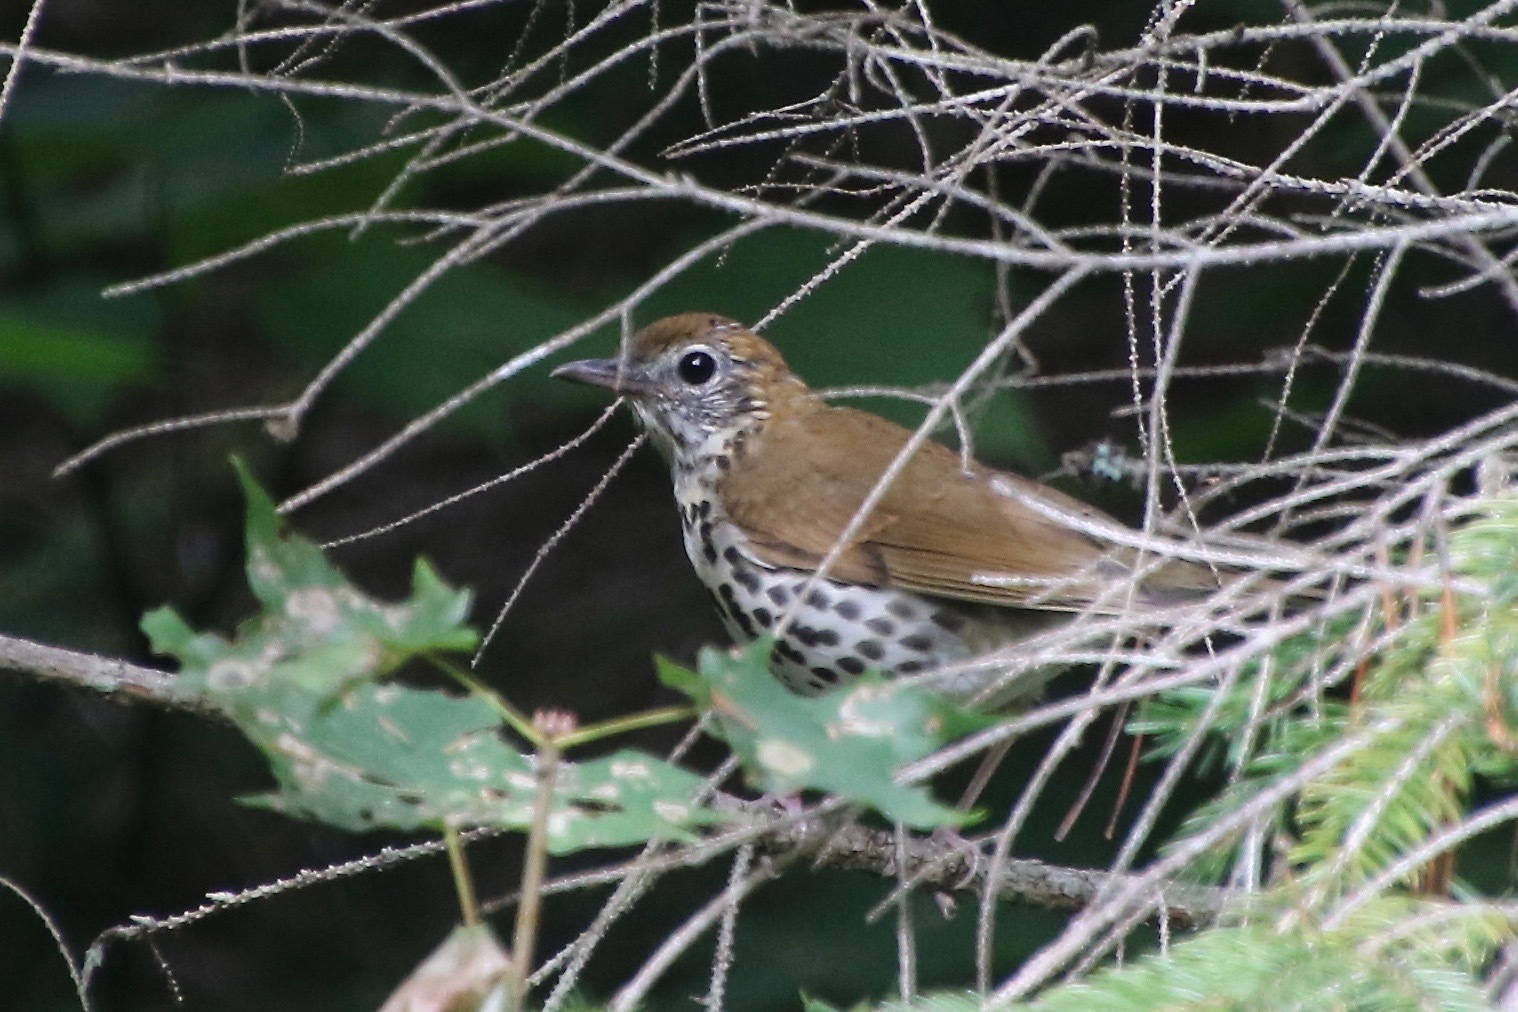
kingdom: Animalia
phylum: Chordata
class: Aves
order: Passeriformes
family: Turdidae
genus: Hylocichla
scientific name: Hylocichla mustelina
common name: Wood thrush
